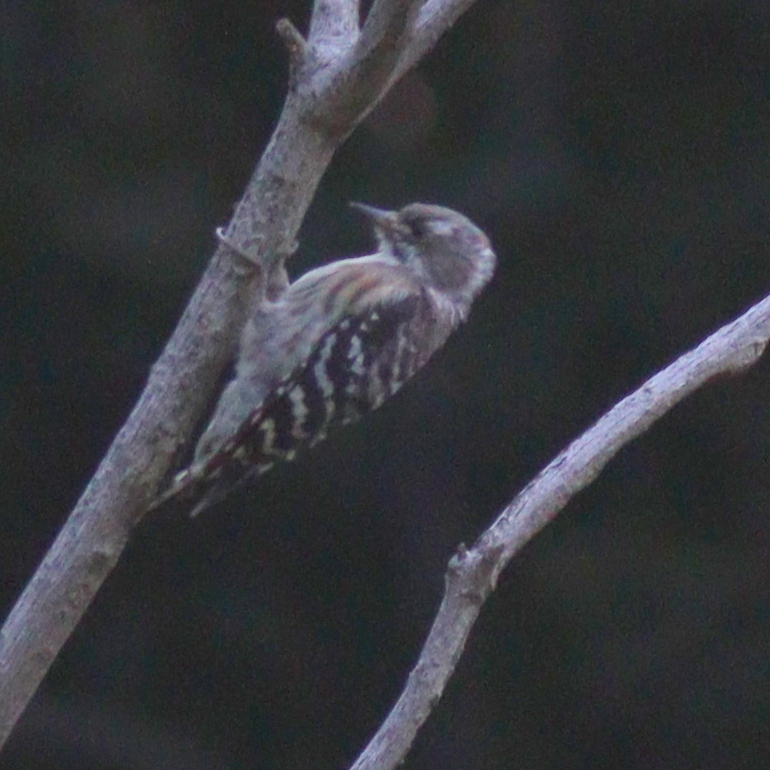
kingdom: Animalia
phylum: Chordata
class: Aves
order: Piciformes
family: Picidae
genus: Yungipicus
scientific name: Yungipicus kizuki
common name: Japanese pygmy woodpecker
